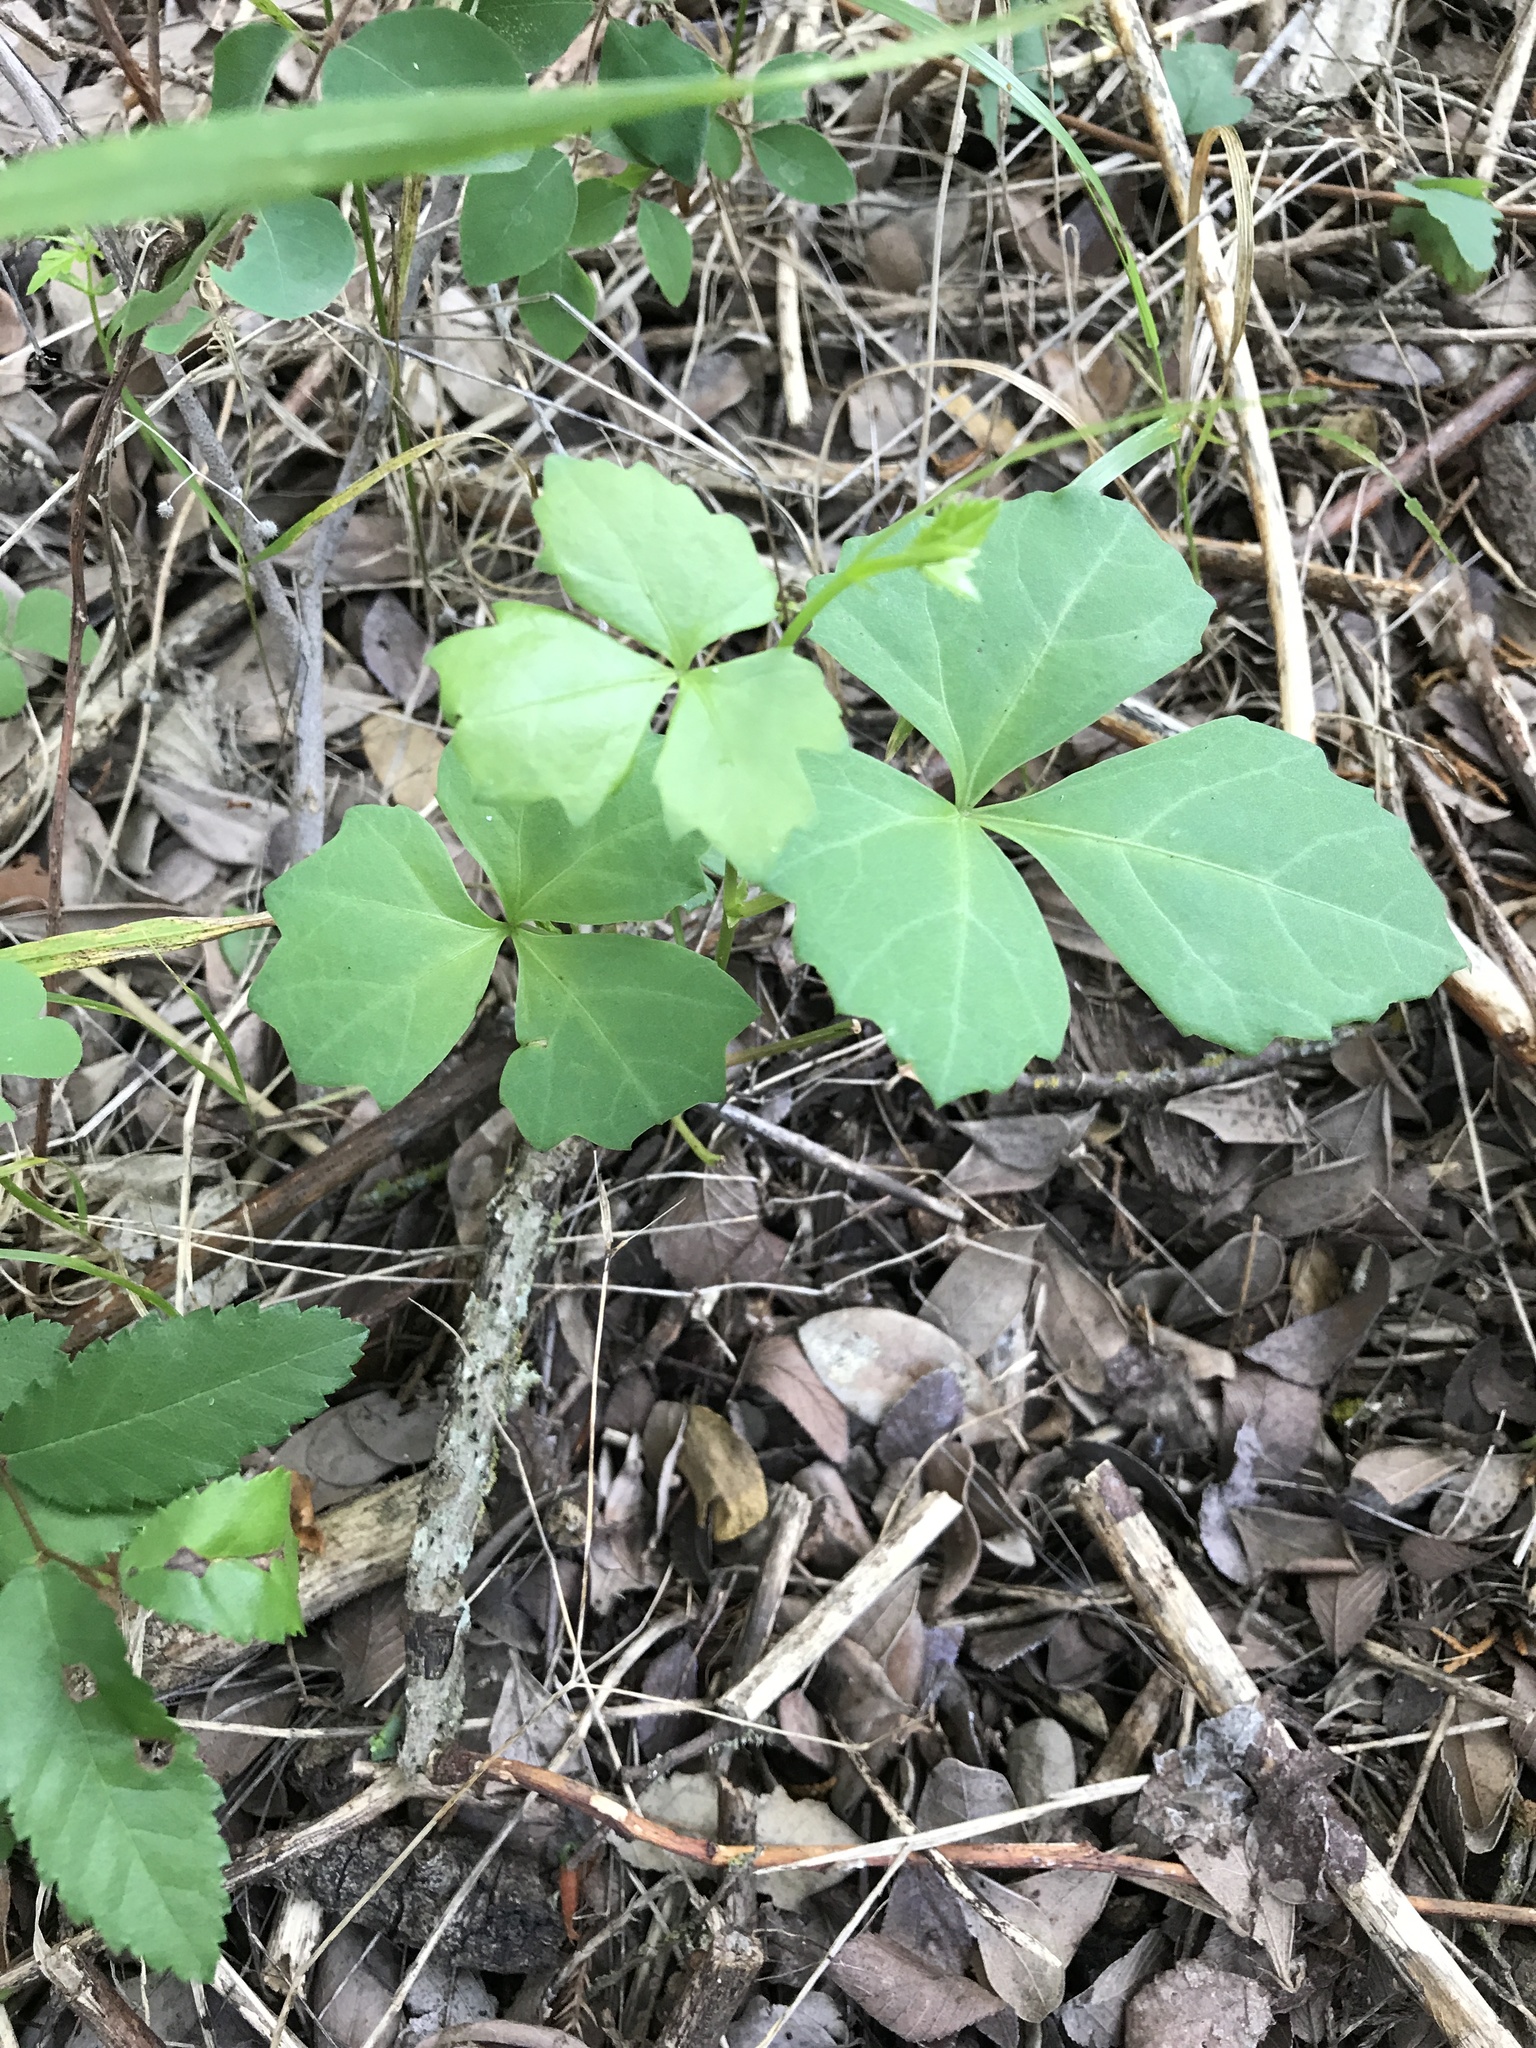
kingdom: Plantae
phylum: Tracheophyta
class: Magnoliopsida
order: Vitales
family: Vitaceae
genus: Cissus
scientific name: Cissus trifoliata
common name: Vine-sorrel
